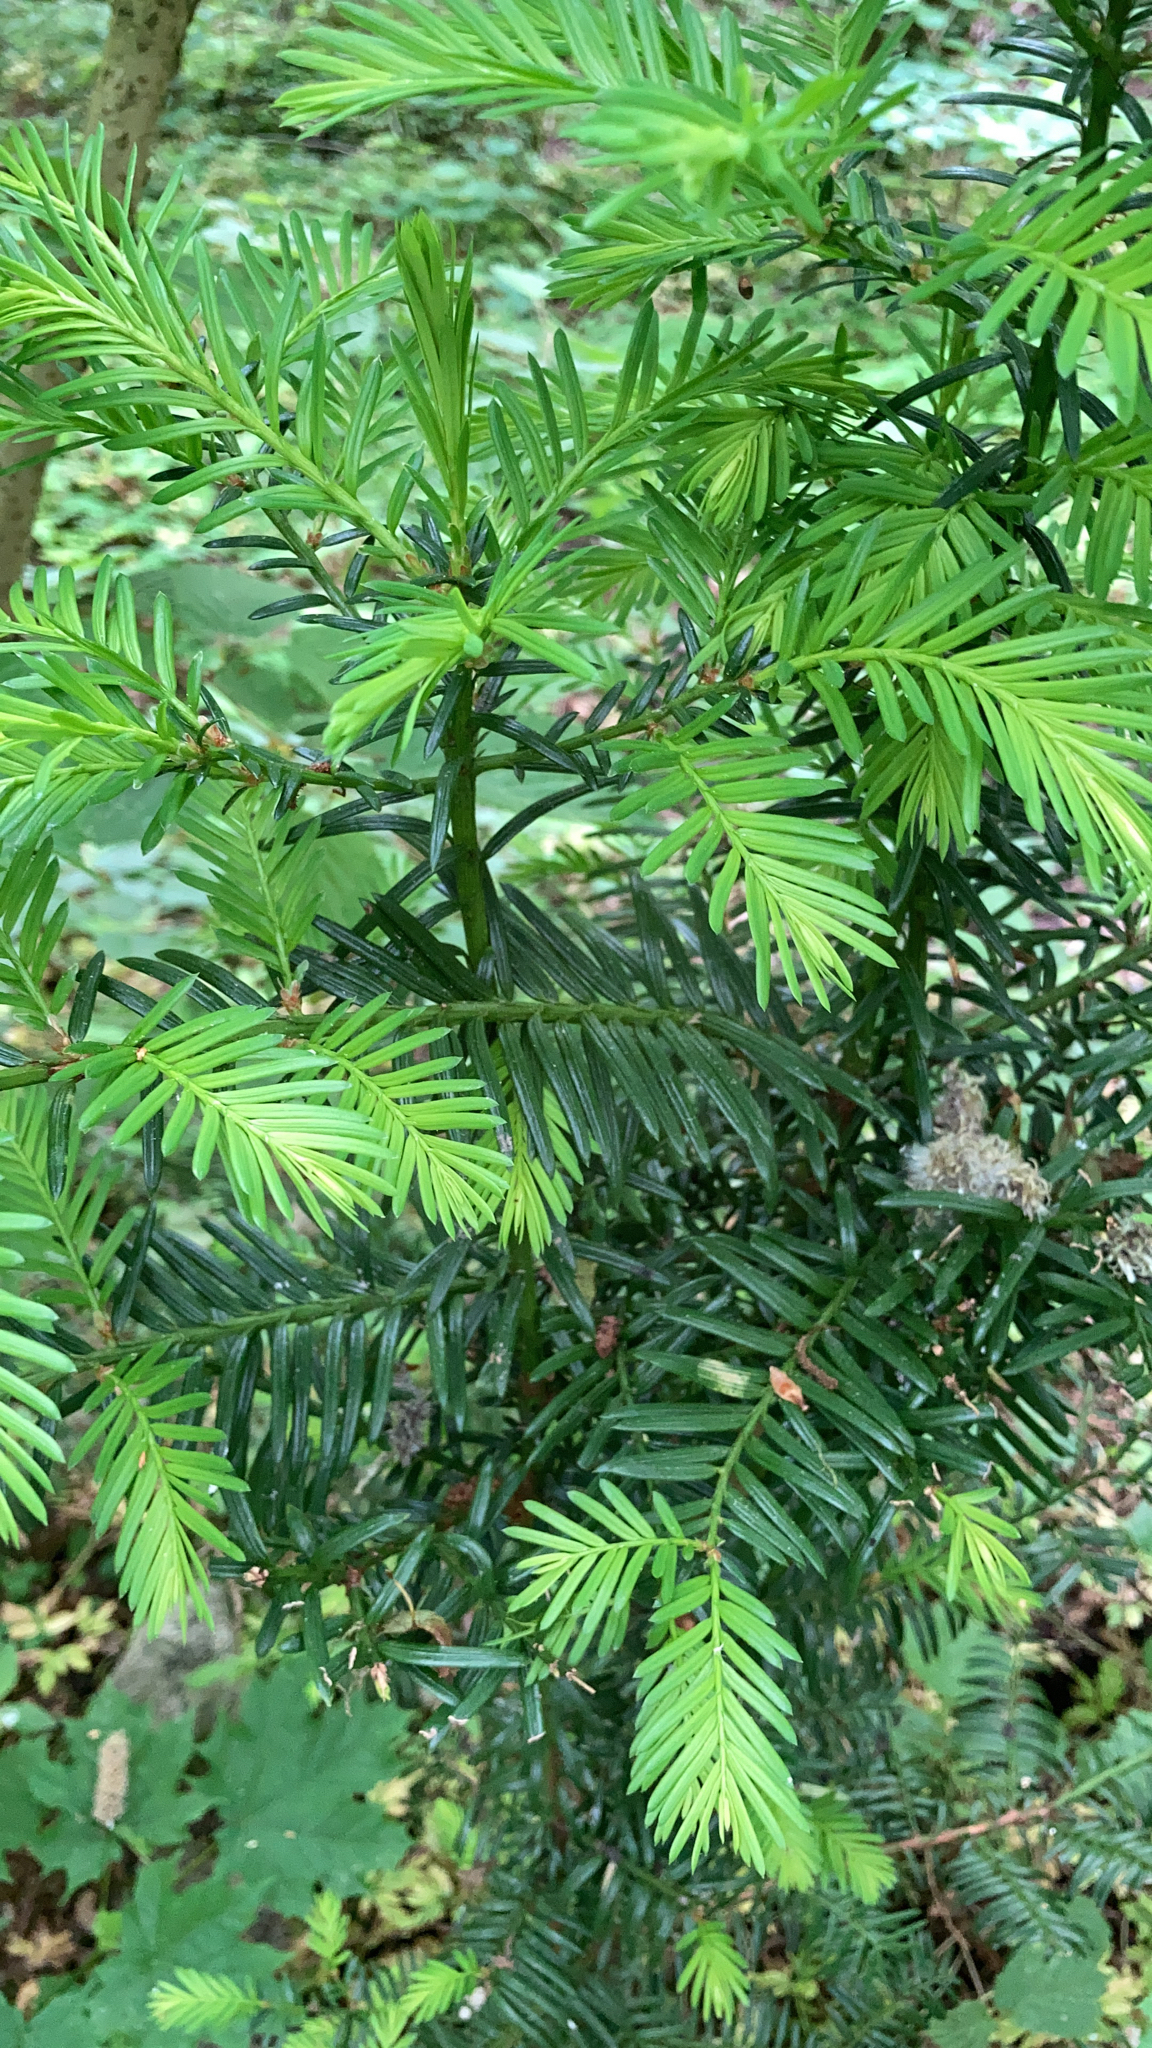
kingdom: Plantae
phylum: Tracheophyta
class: Pinopsida
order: Pinales
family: Taxaceae
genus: Taxus
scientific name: Taxus baccata
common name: Yew
